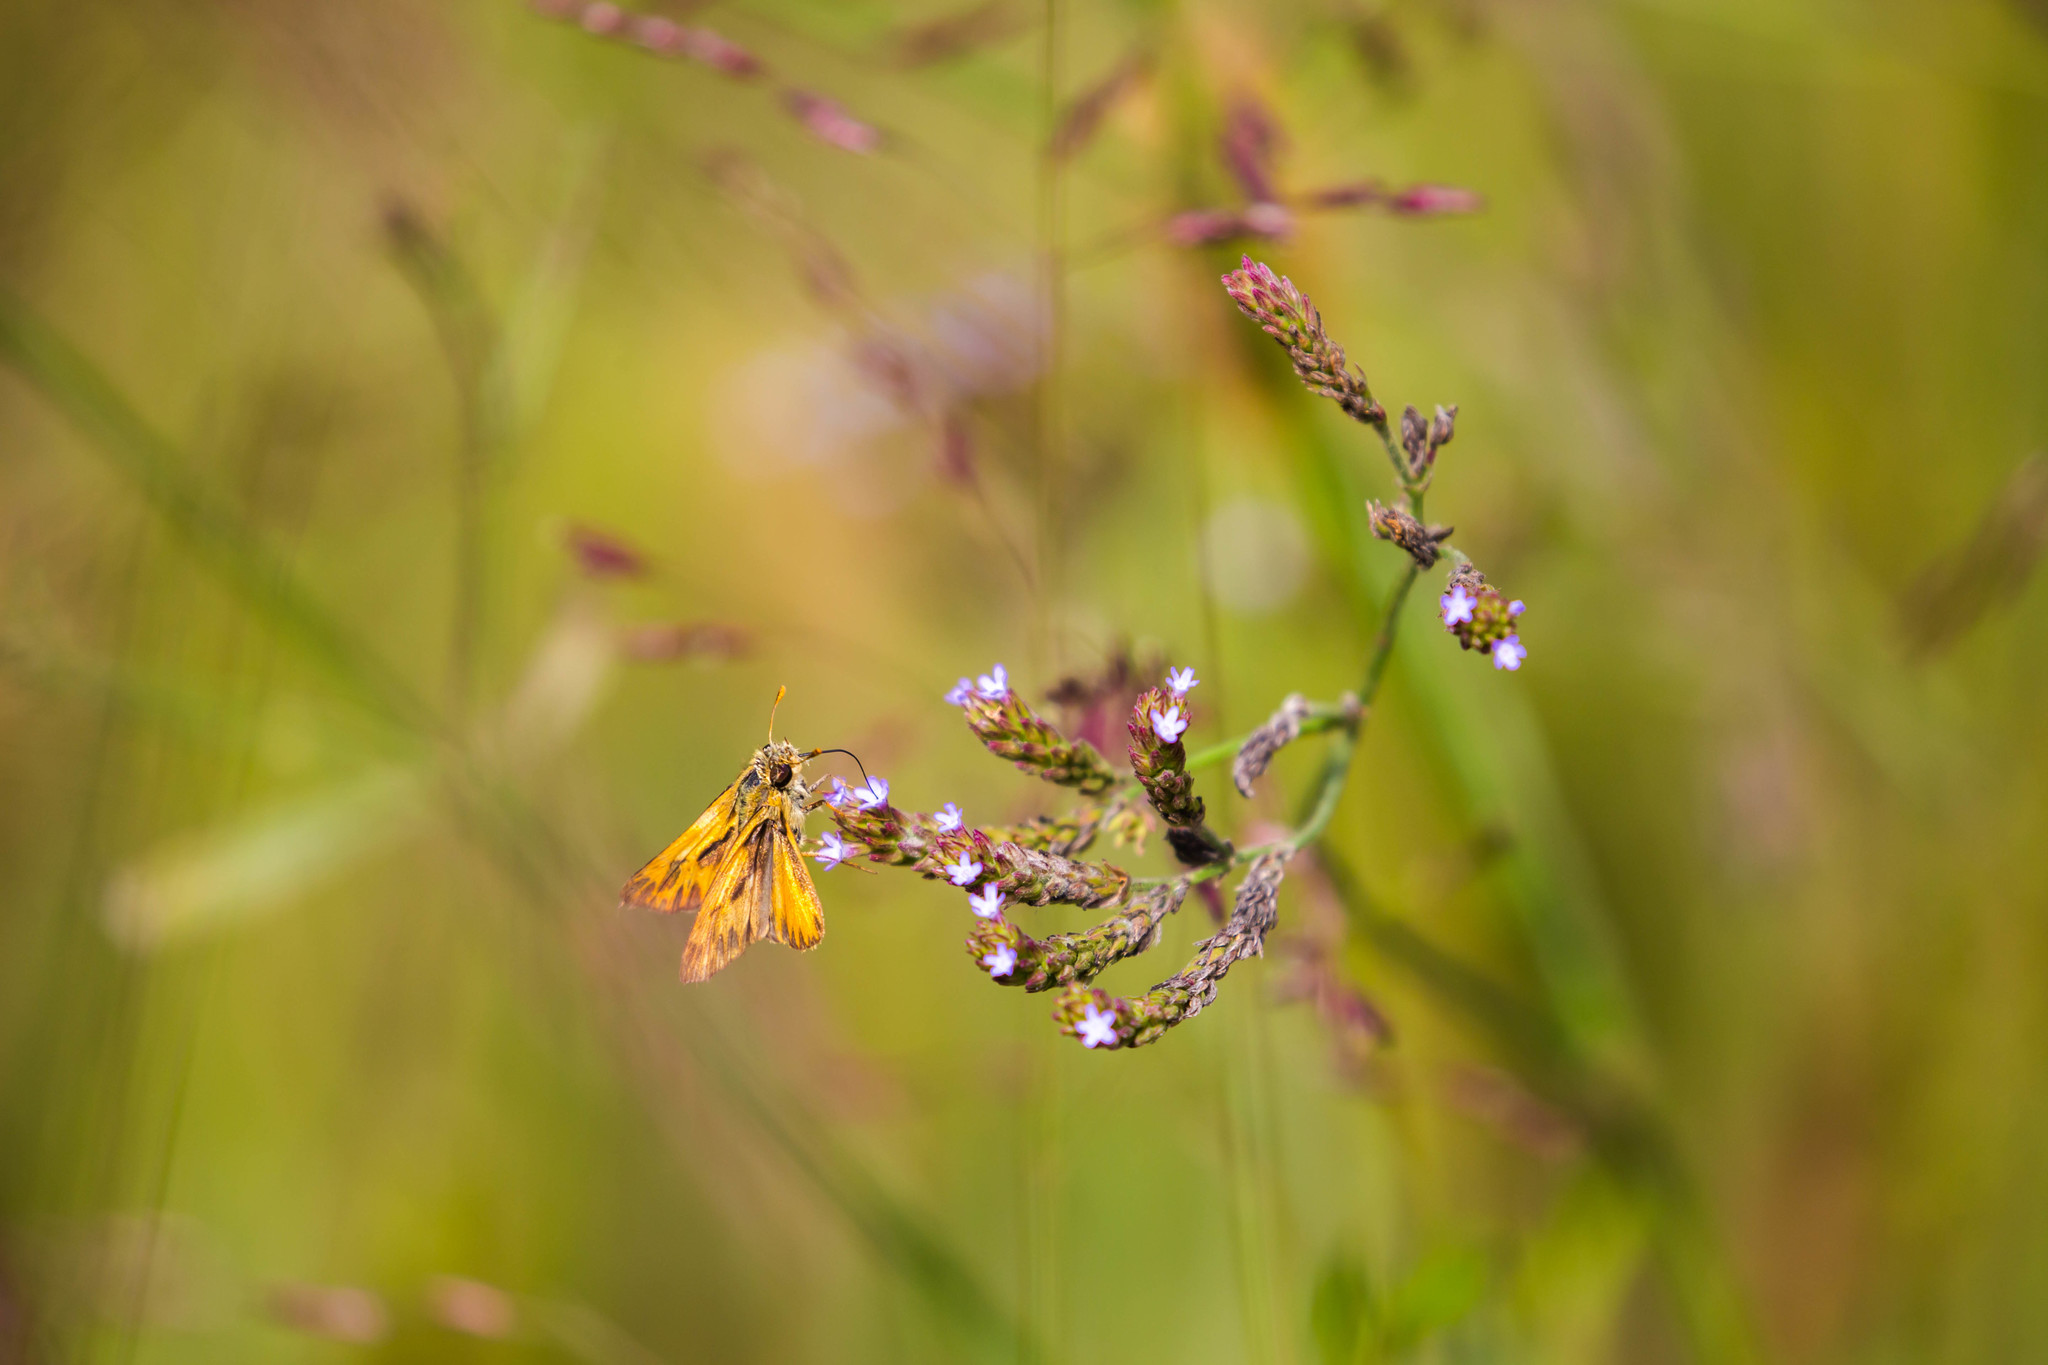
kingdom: Animalia
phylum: Arthropoda
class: Insecta
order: Lepidoptera
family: Hesperiidae
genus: Hylephila
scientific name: Hylephila phyleus
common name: Fiery skipper
